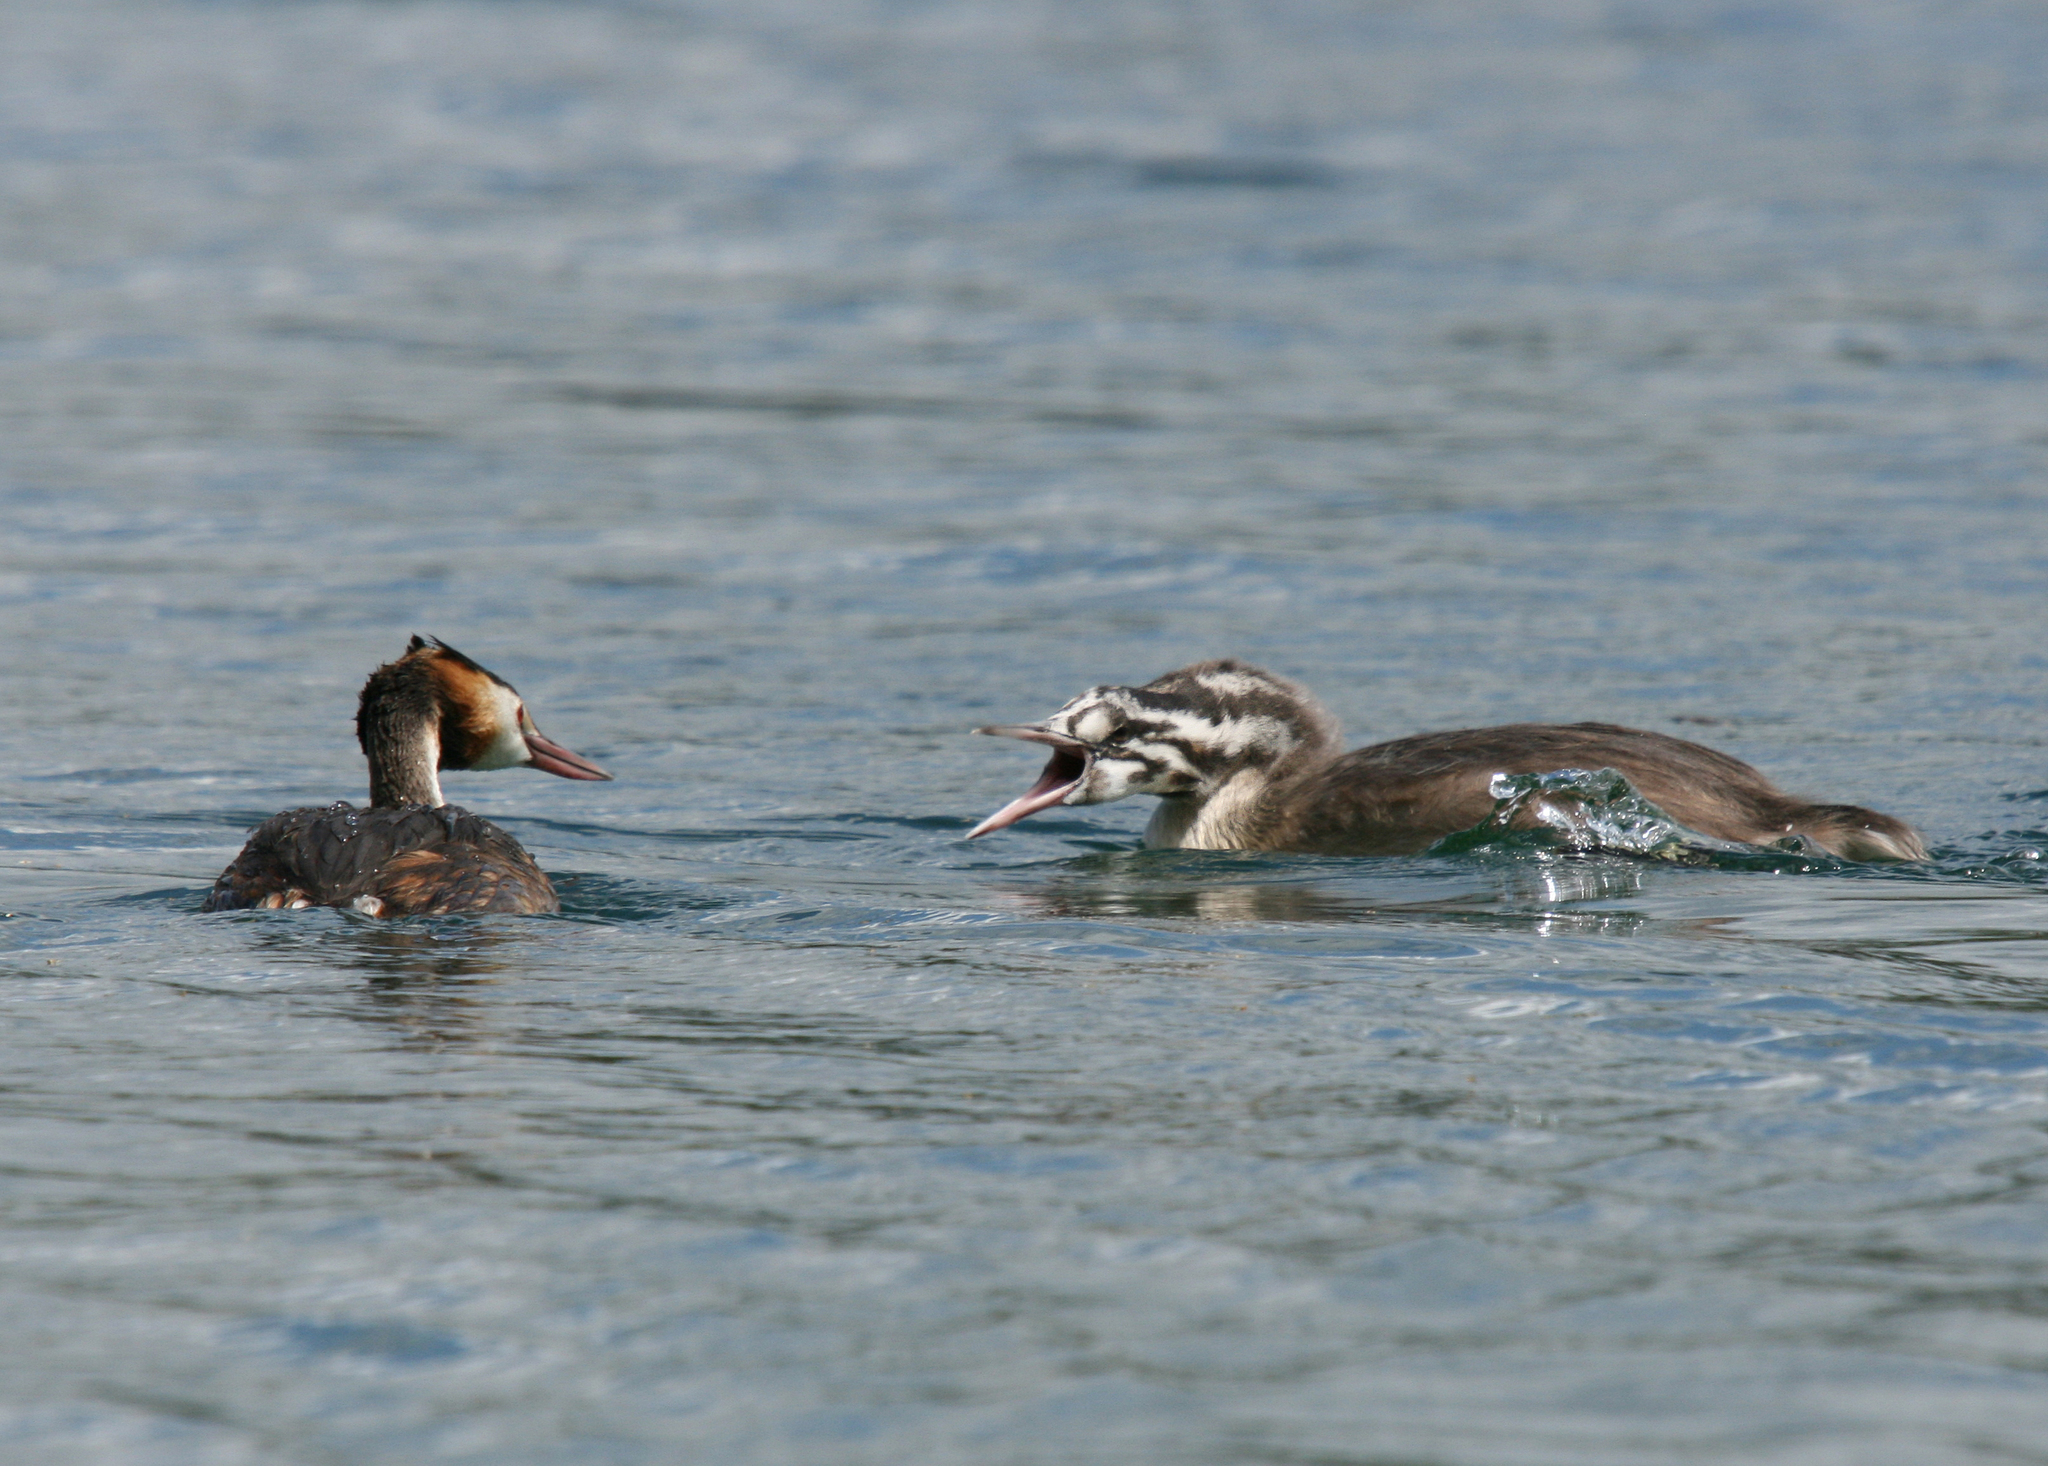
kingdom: Animalia
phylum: Chordata
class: Aves
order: Podicipediformes
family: Podicipedidae
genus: Podiceps
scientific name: Podiceps cristatus
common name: Great crested grebe
